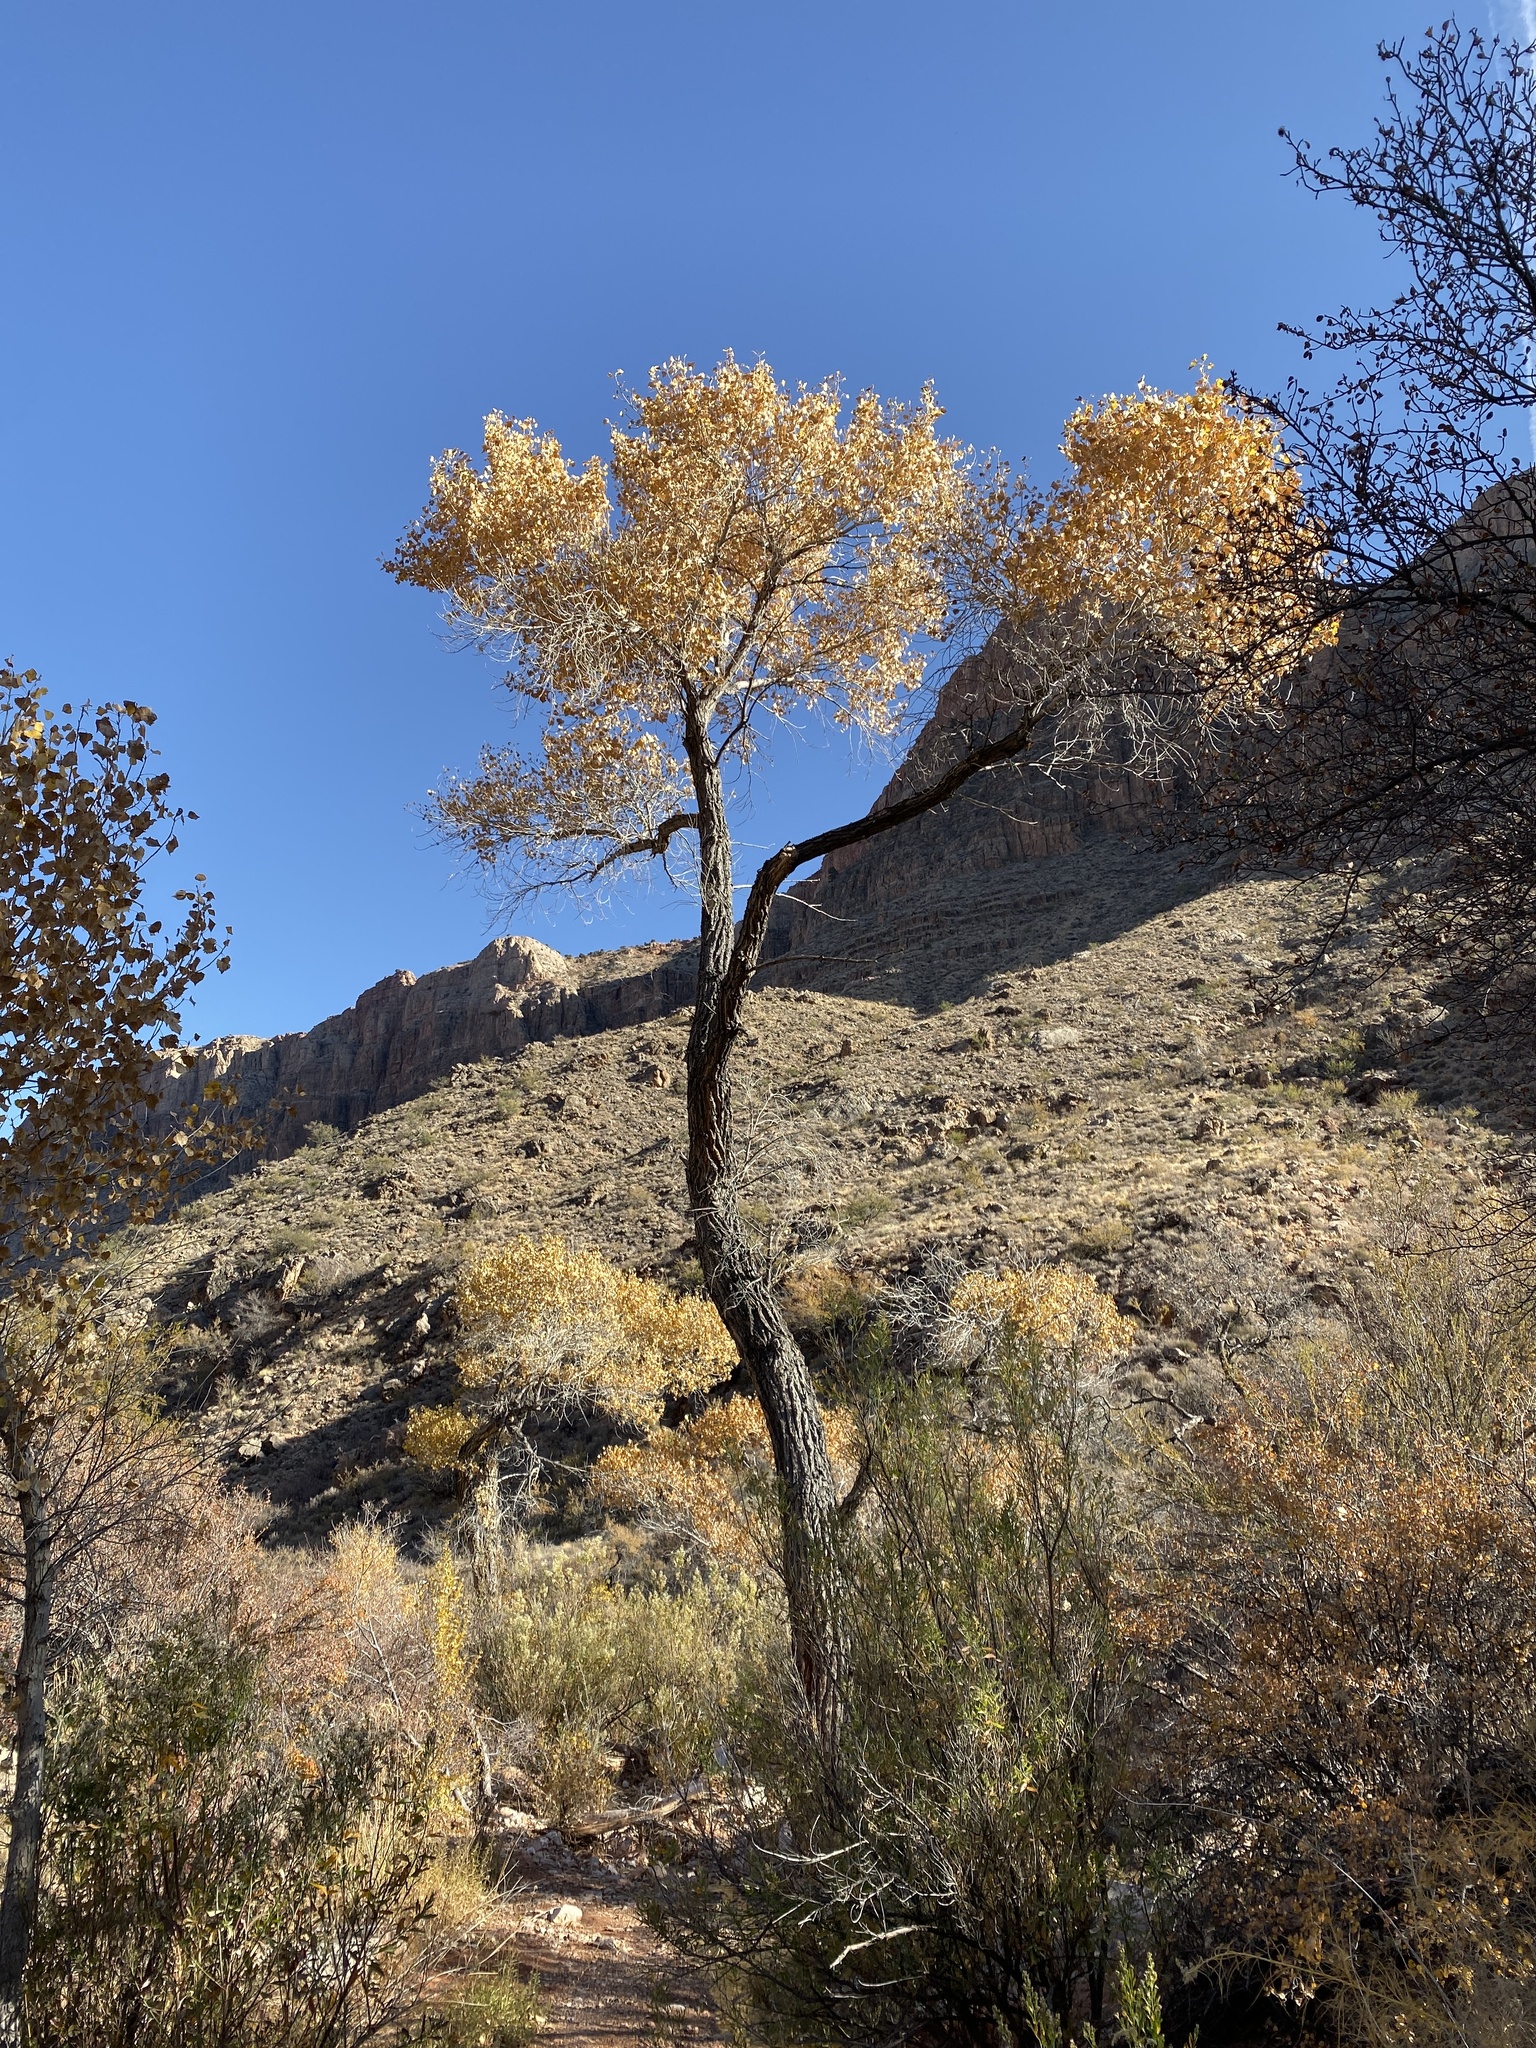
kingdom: Plantae
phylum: Tracheophyta
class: Magnoliopsida
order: Malpighiales
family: Salicaceae
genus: Populus
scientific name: Populus fremontii
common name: Fremont's cottonwood
